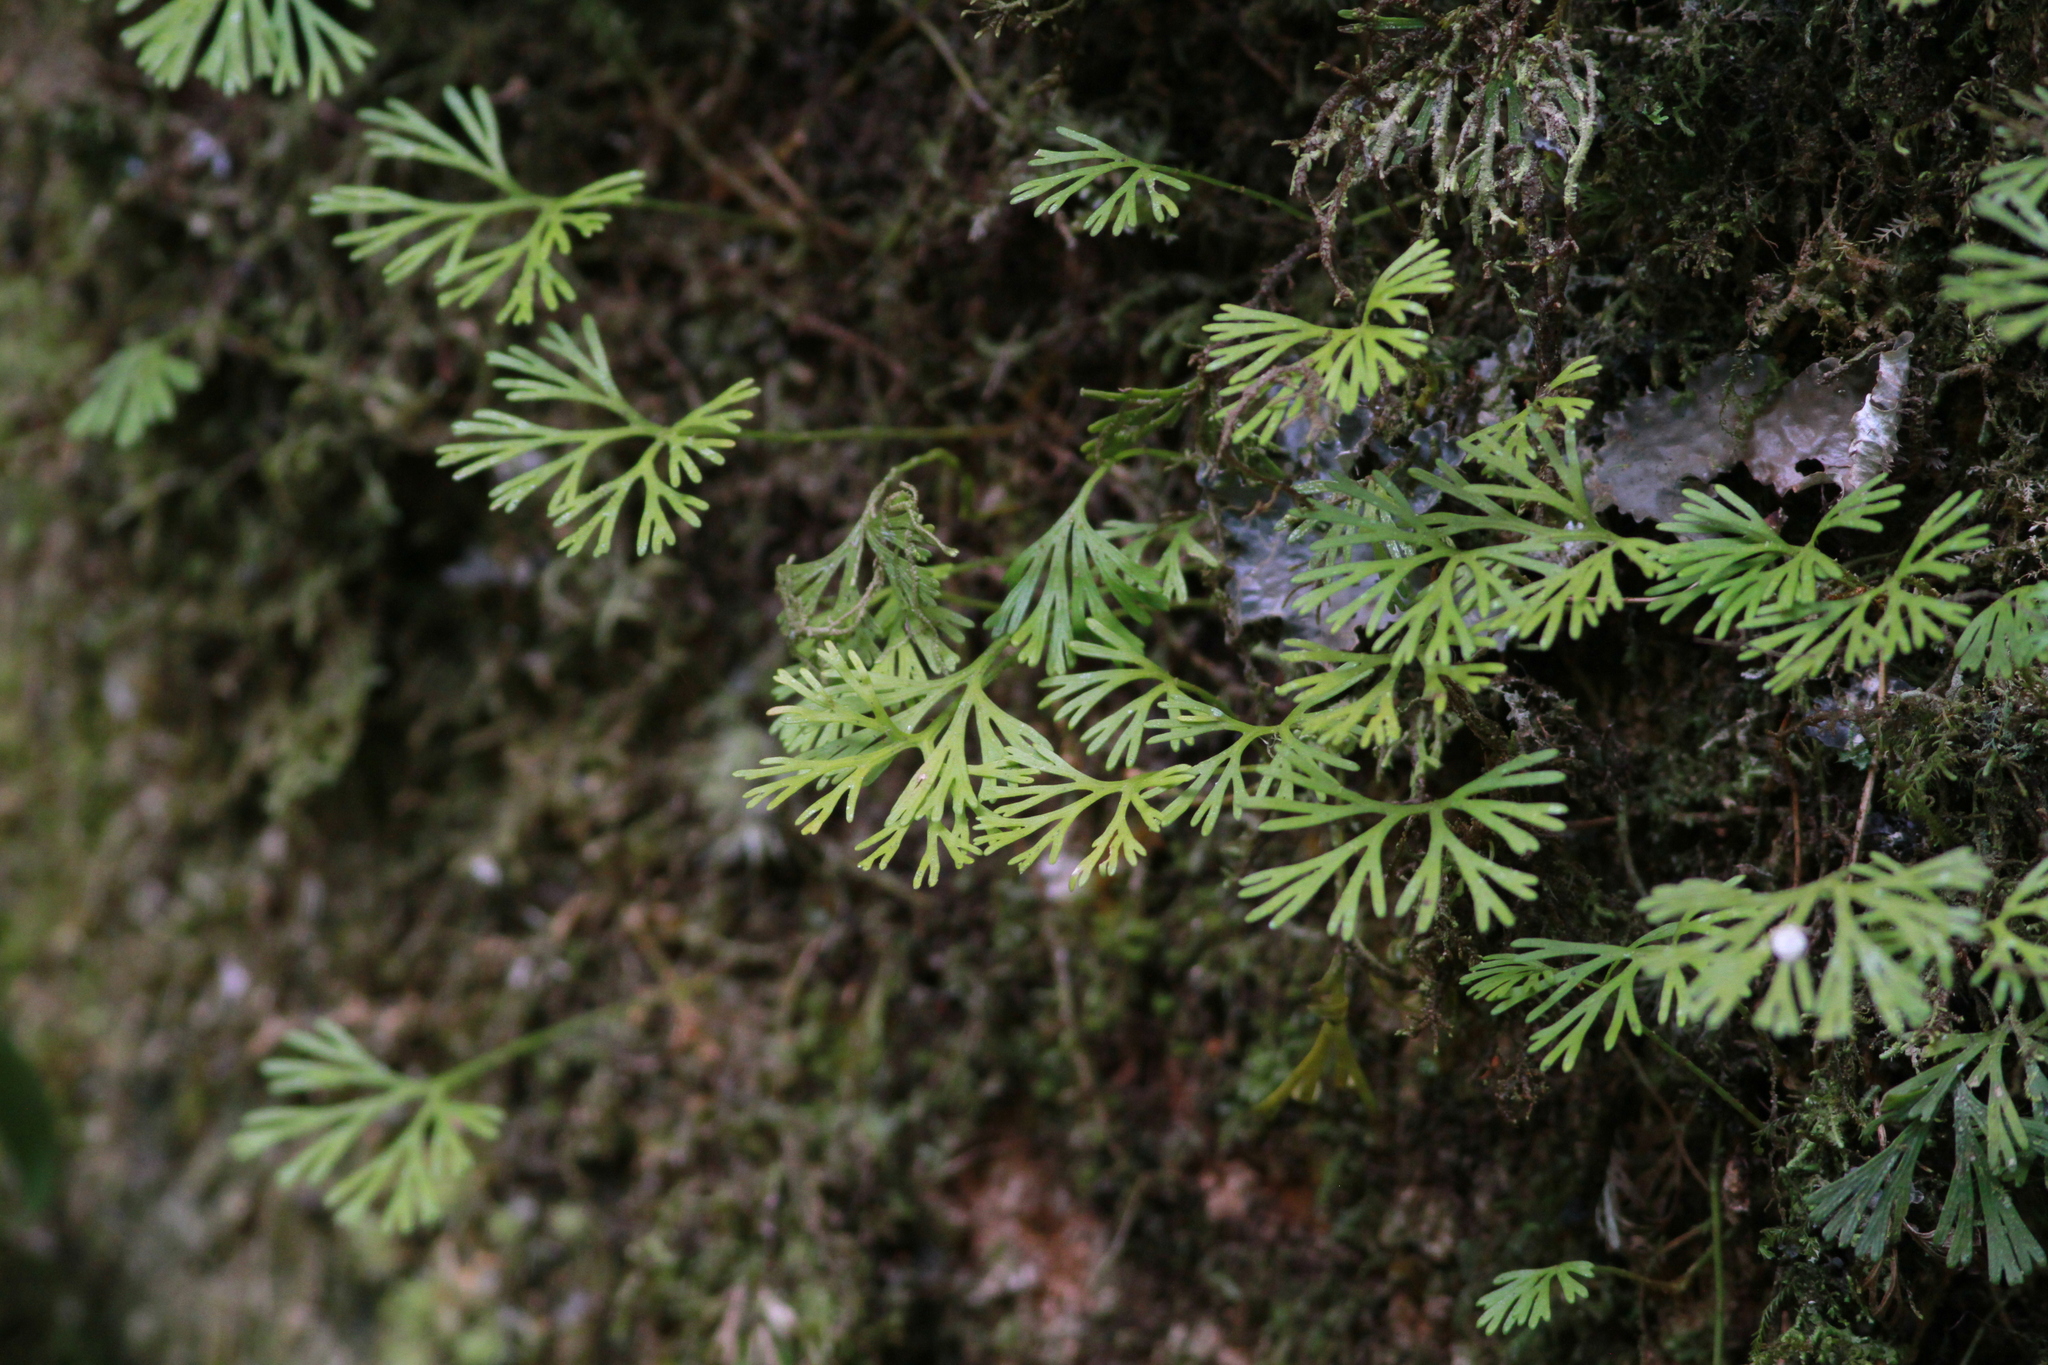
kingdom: Plantae
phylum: Tracheophyta
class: Polypodiopsida
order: Polypodiales
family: Dryopteridaceae
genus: Elaphoglossum
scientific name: Elaphoglossum peltatum
